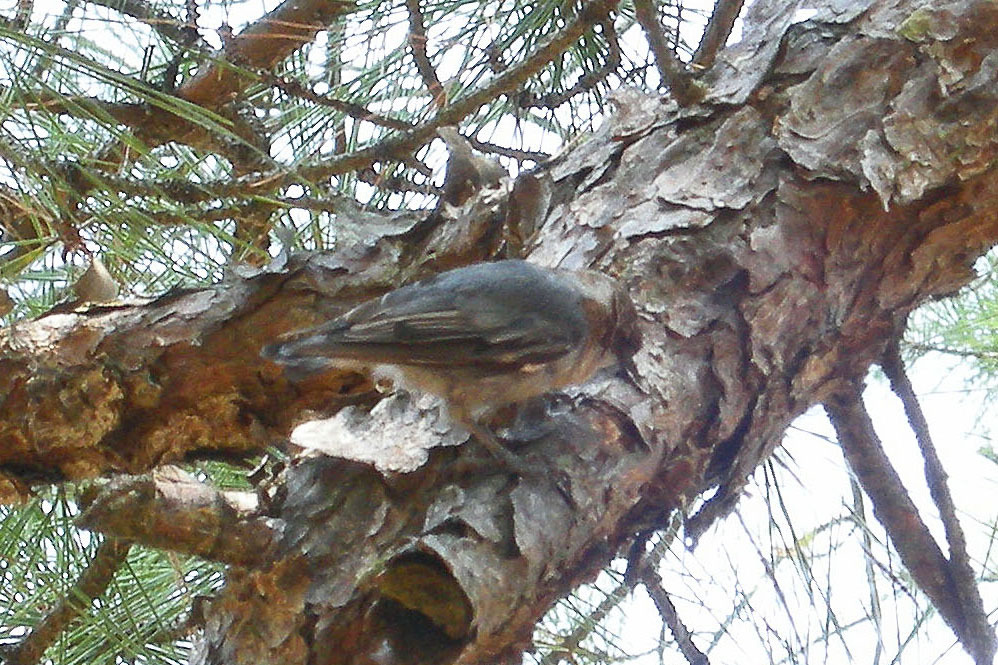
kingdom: Animalia
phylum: Chordata
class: Aves
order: Passeriformes
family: Sittidae
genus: Sitta
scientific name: Sitta pusilla
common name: Brown-headed nuthatch
